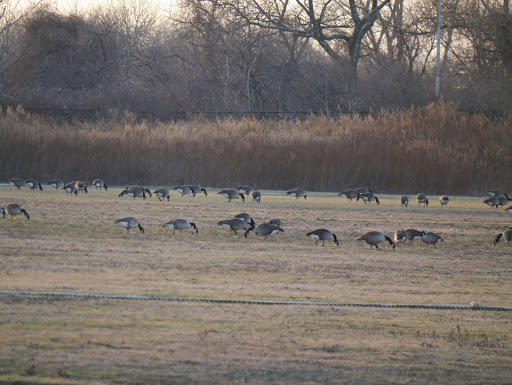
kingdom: Animalia
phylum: Chordata
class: Aves
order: Anseriformes
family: Anatidae
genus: Branta
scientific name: Branta canadensis
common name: Canada goose
